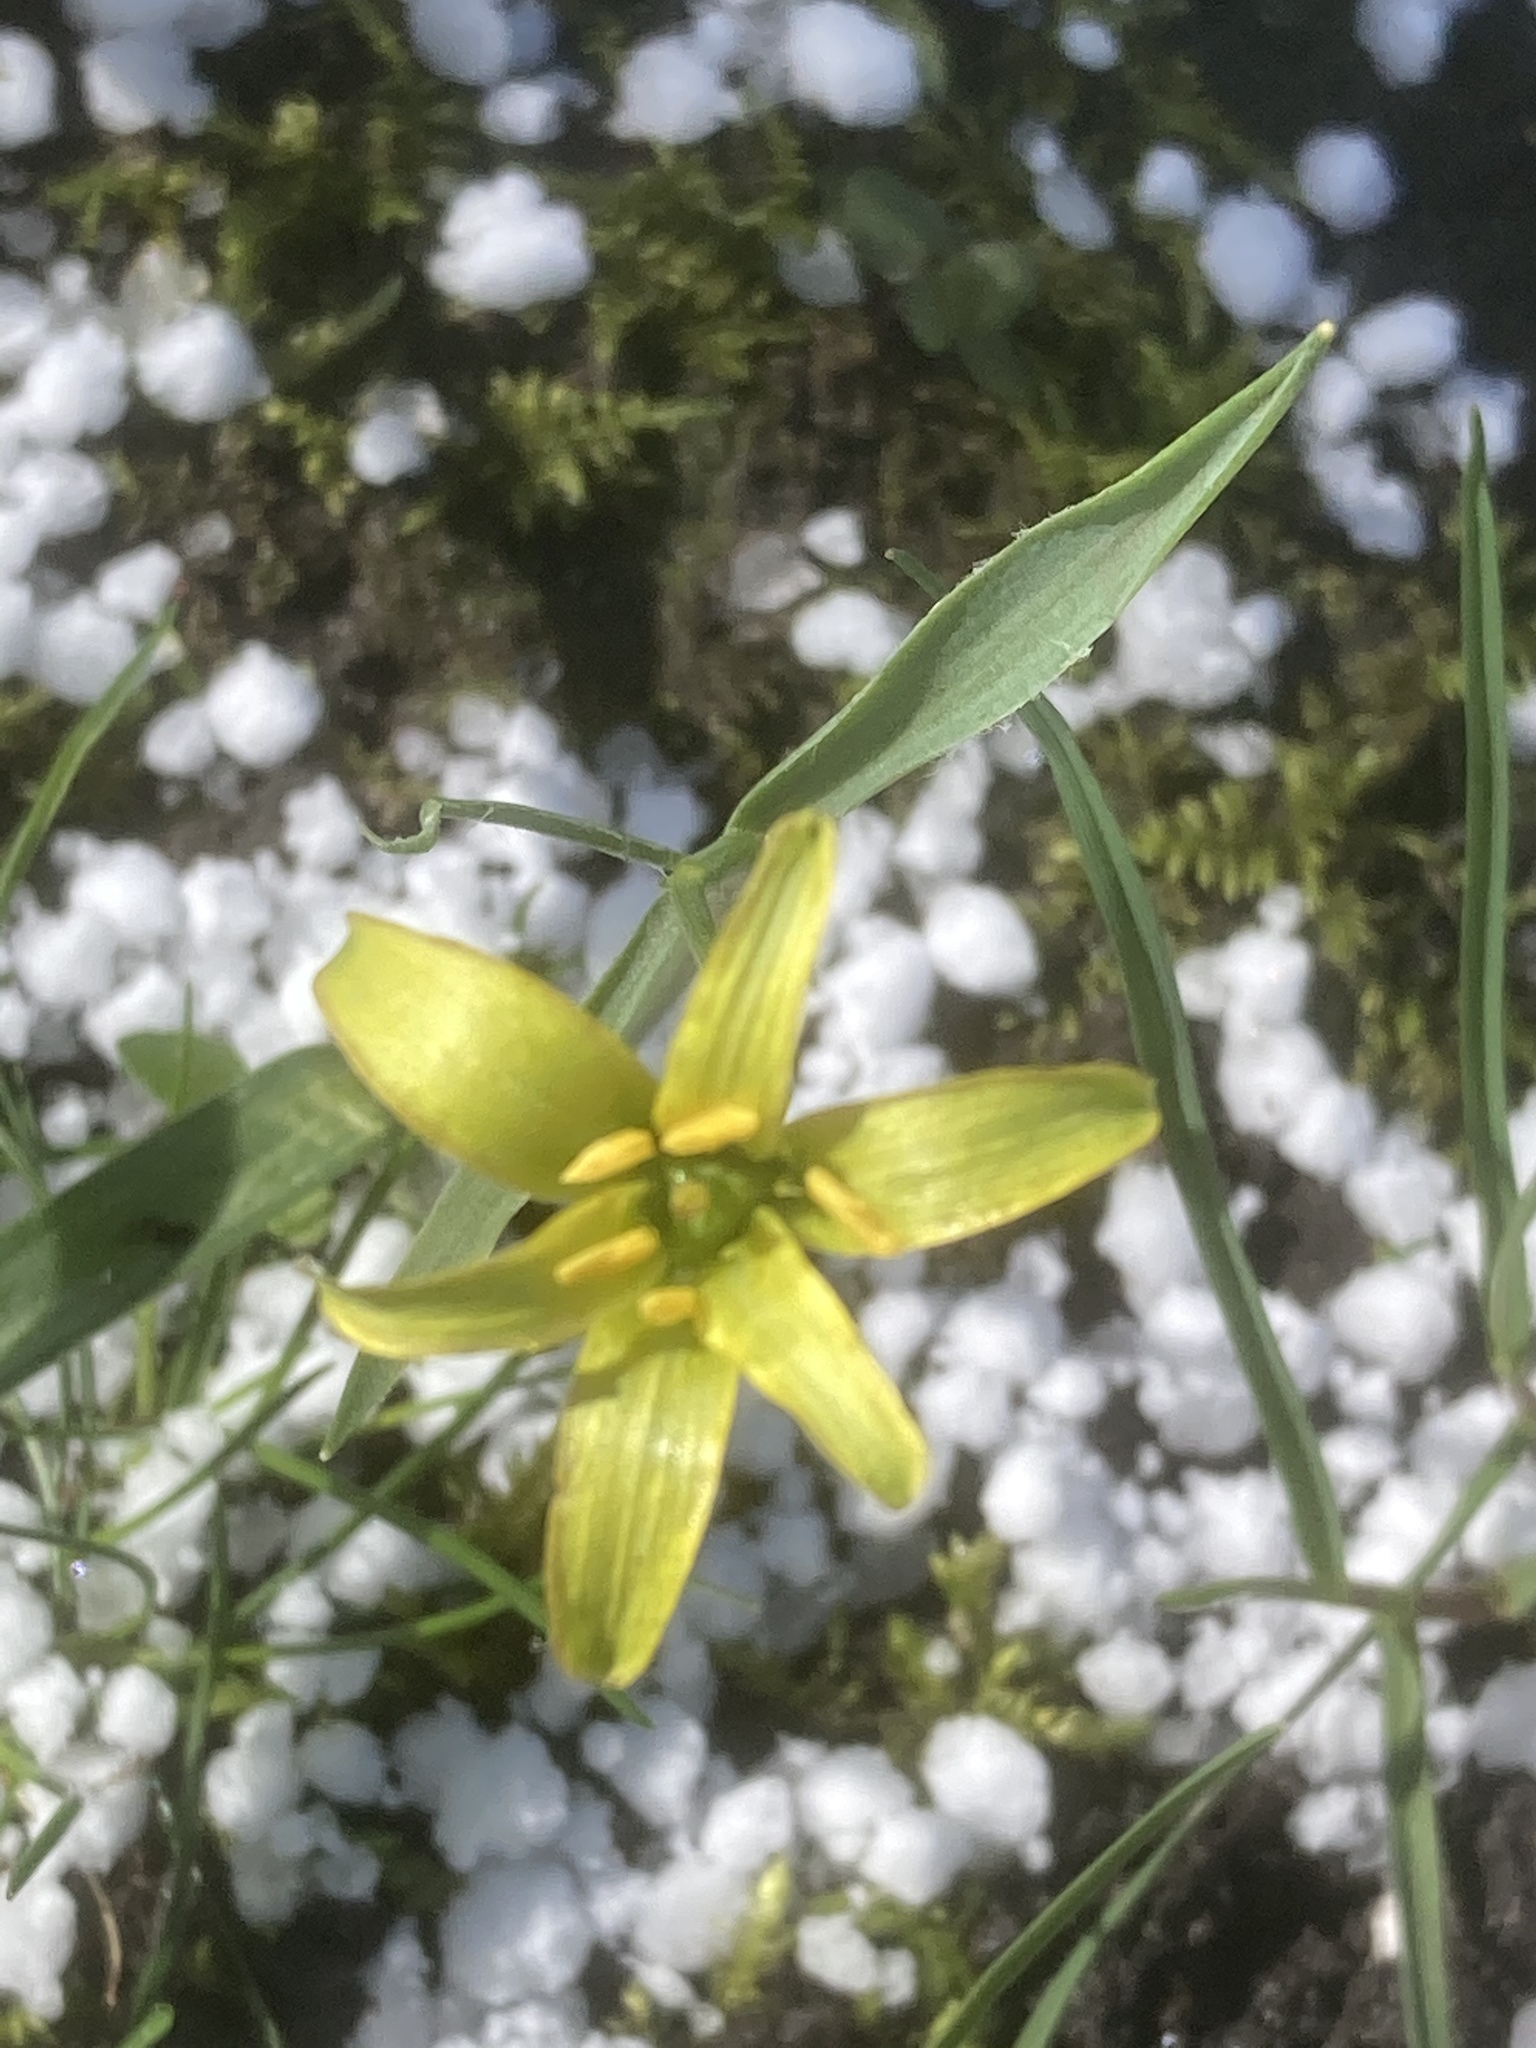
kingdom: Plantae
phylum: Tracheophyta
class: Liliopsida
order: Liliales
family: Liliaceae
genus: Gagea
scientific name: Gagea lutea
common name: Yellow star-of-bethlehem
